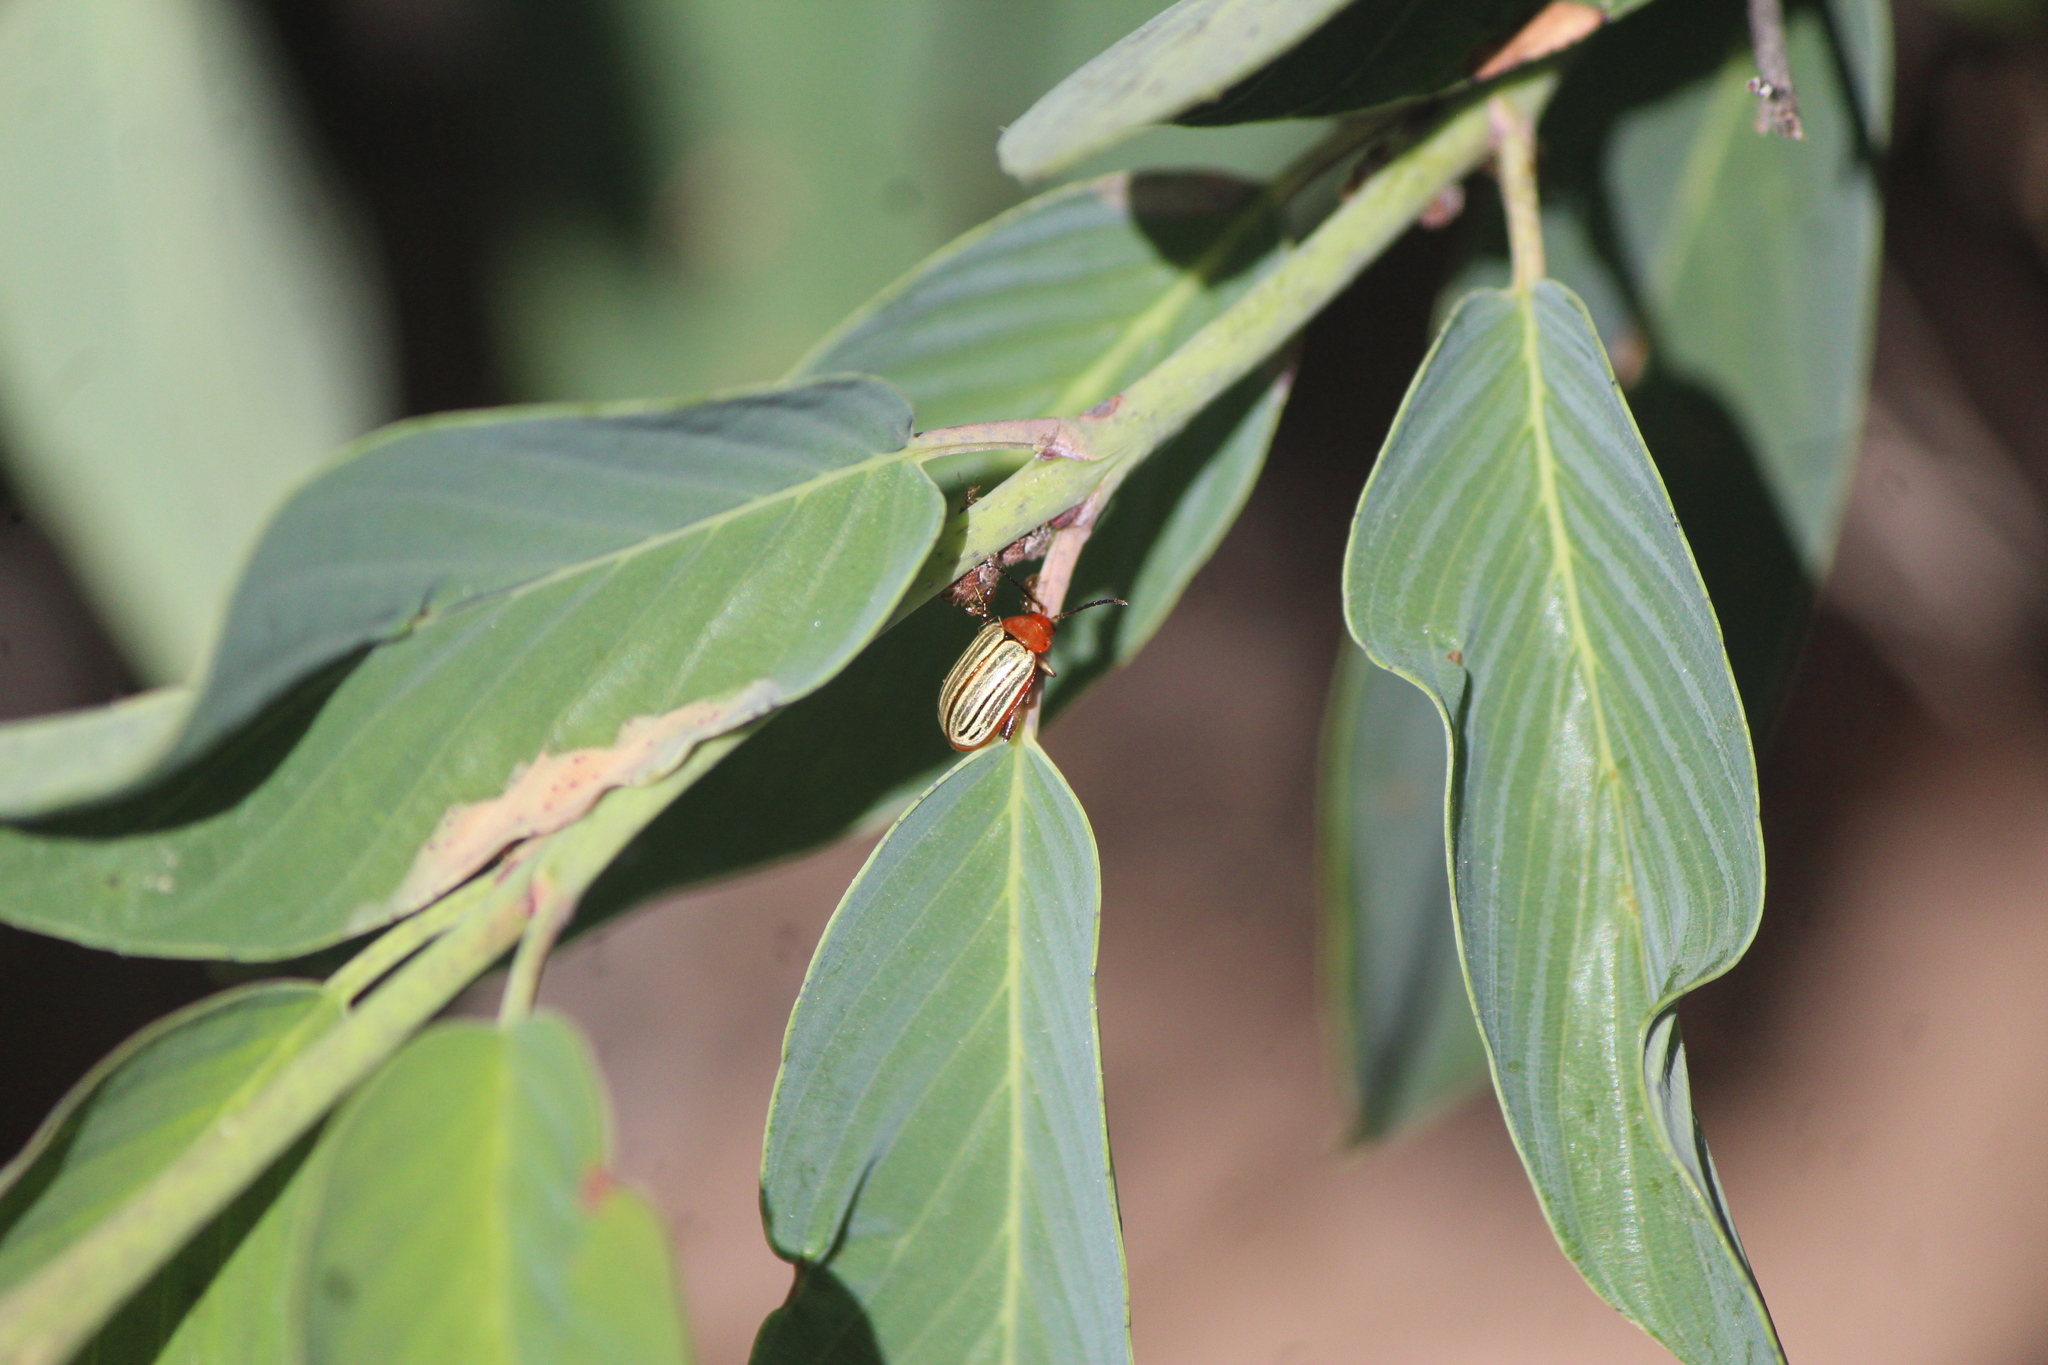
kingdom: Animalia
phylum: Arthropoda
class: Insecta
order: Coleoptera
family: Chrysomelidae
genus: Disonycha
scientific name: Disonycha
